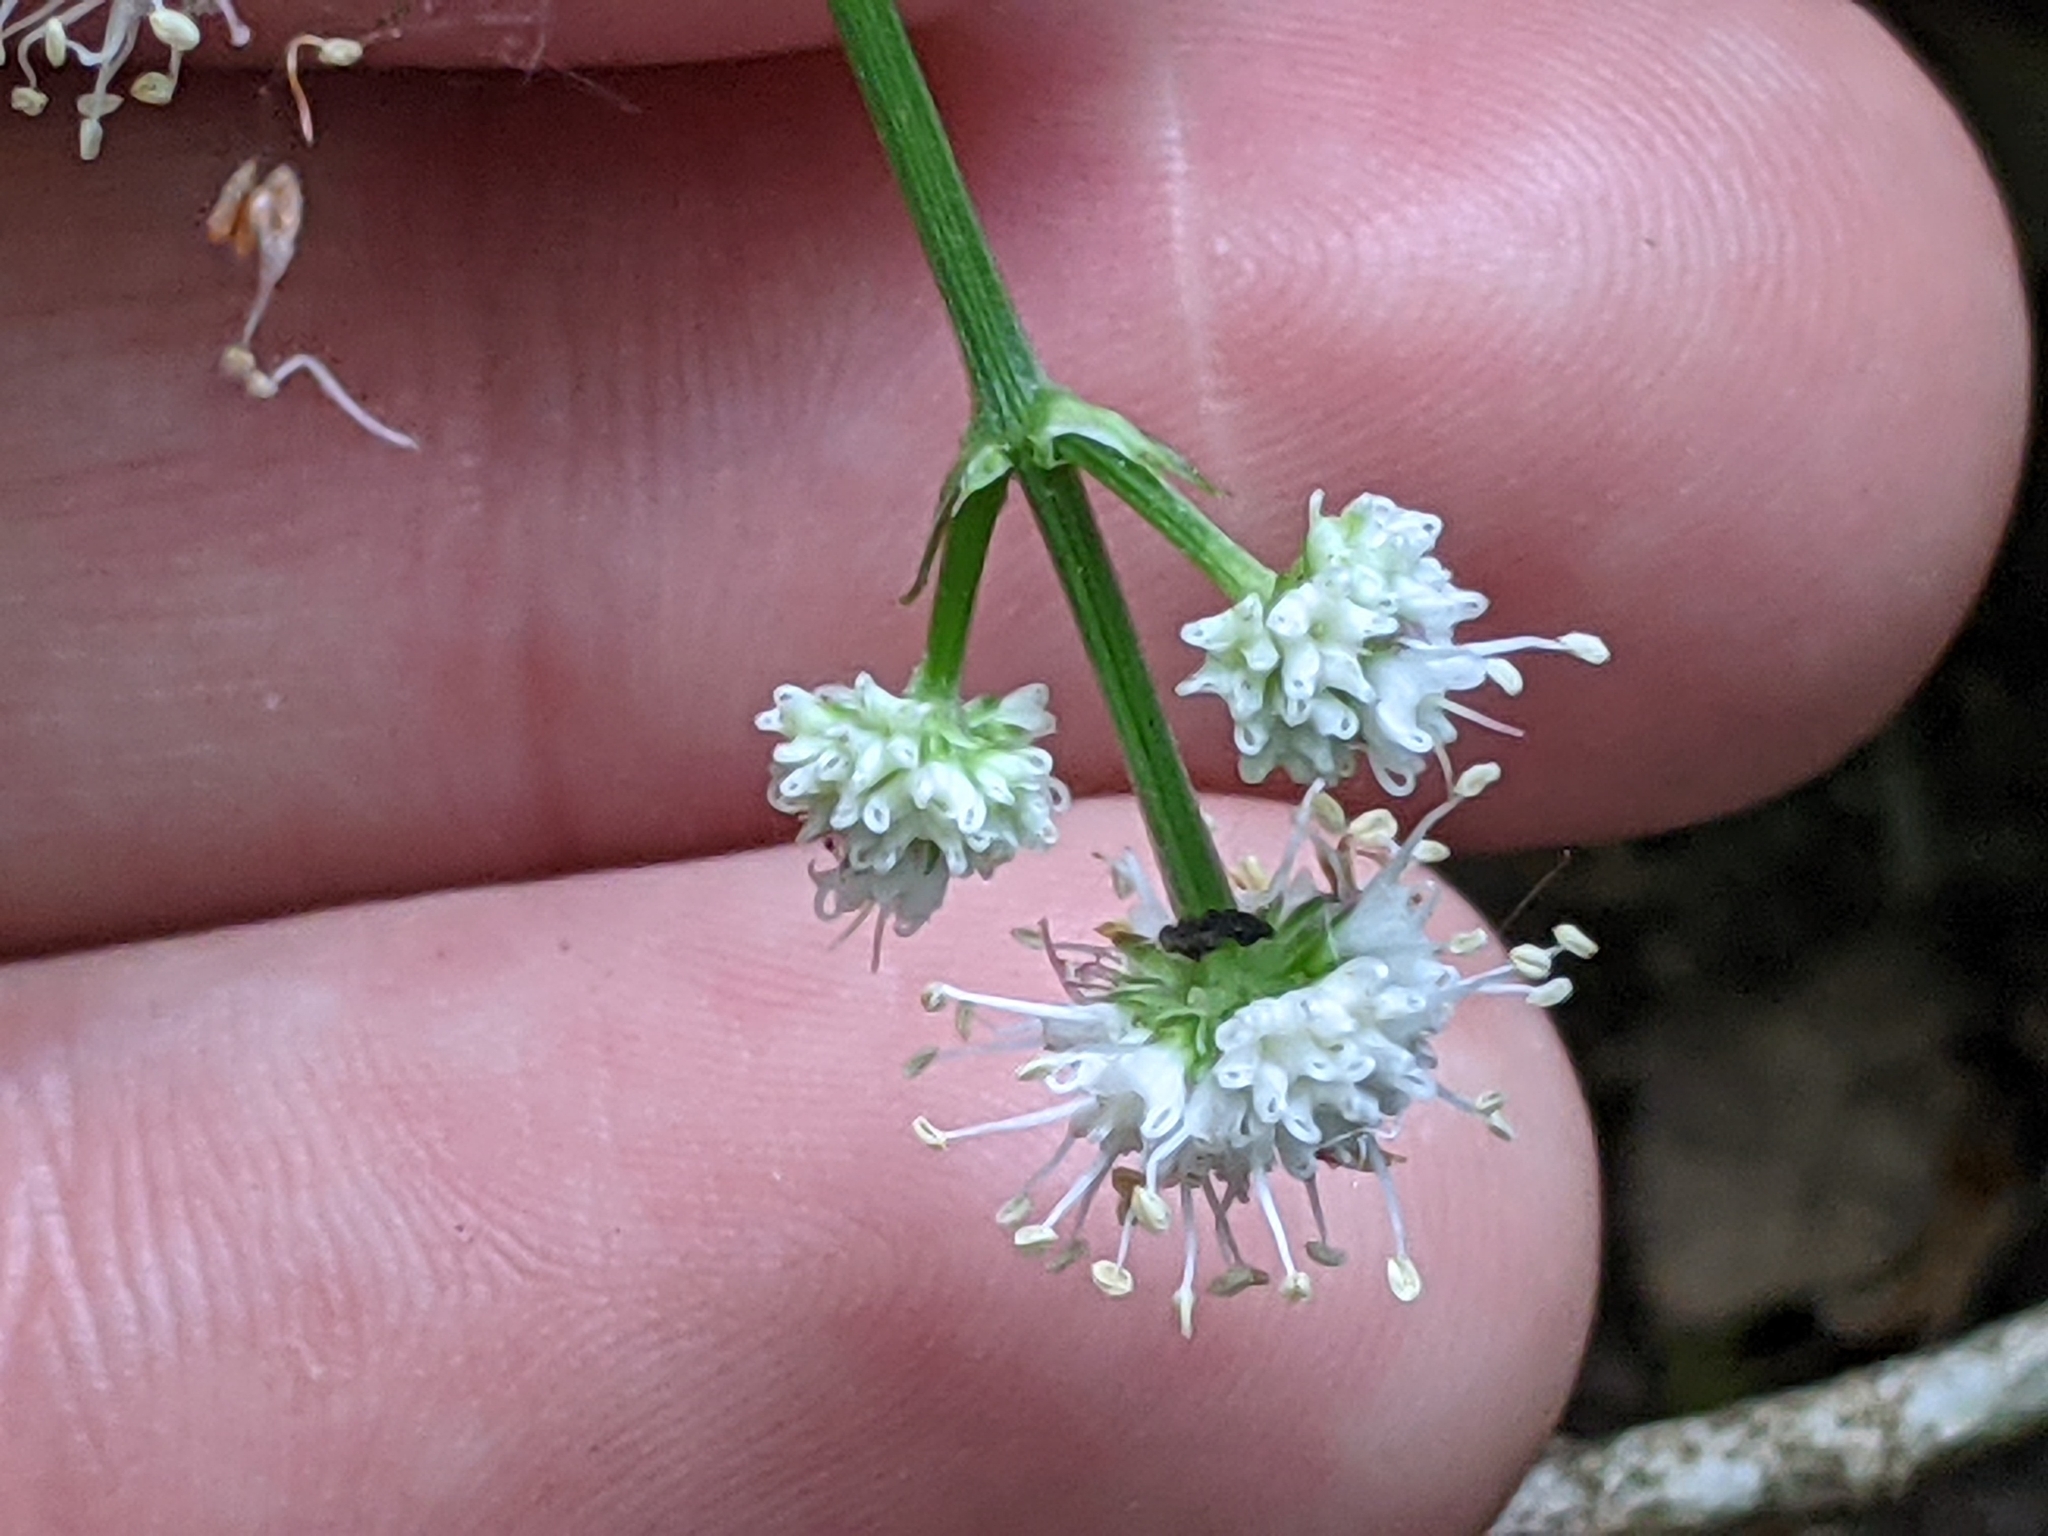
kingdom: Plantae
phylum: Tracheophyta
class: Magnoliopsida
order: Apiales
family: Apiaceae
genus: Sanicula
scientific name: Sanicula europaea
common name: Sanicle
